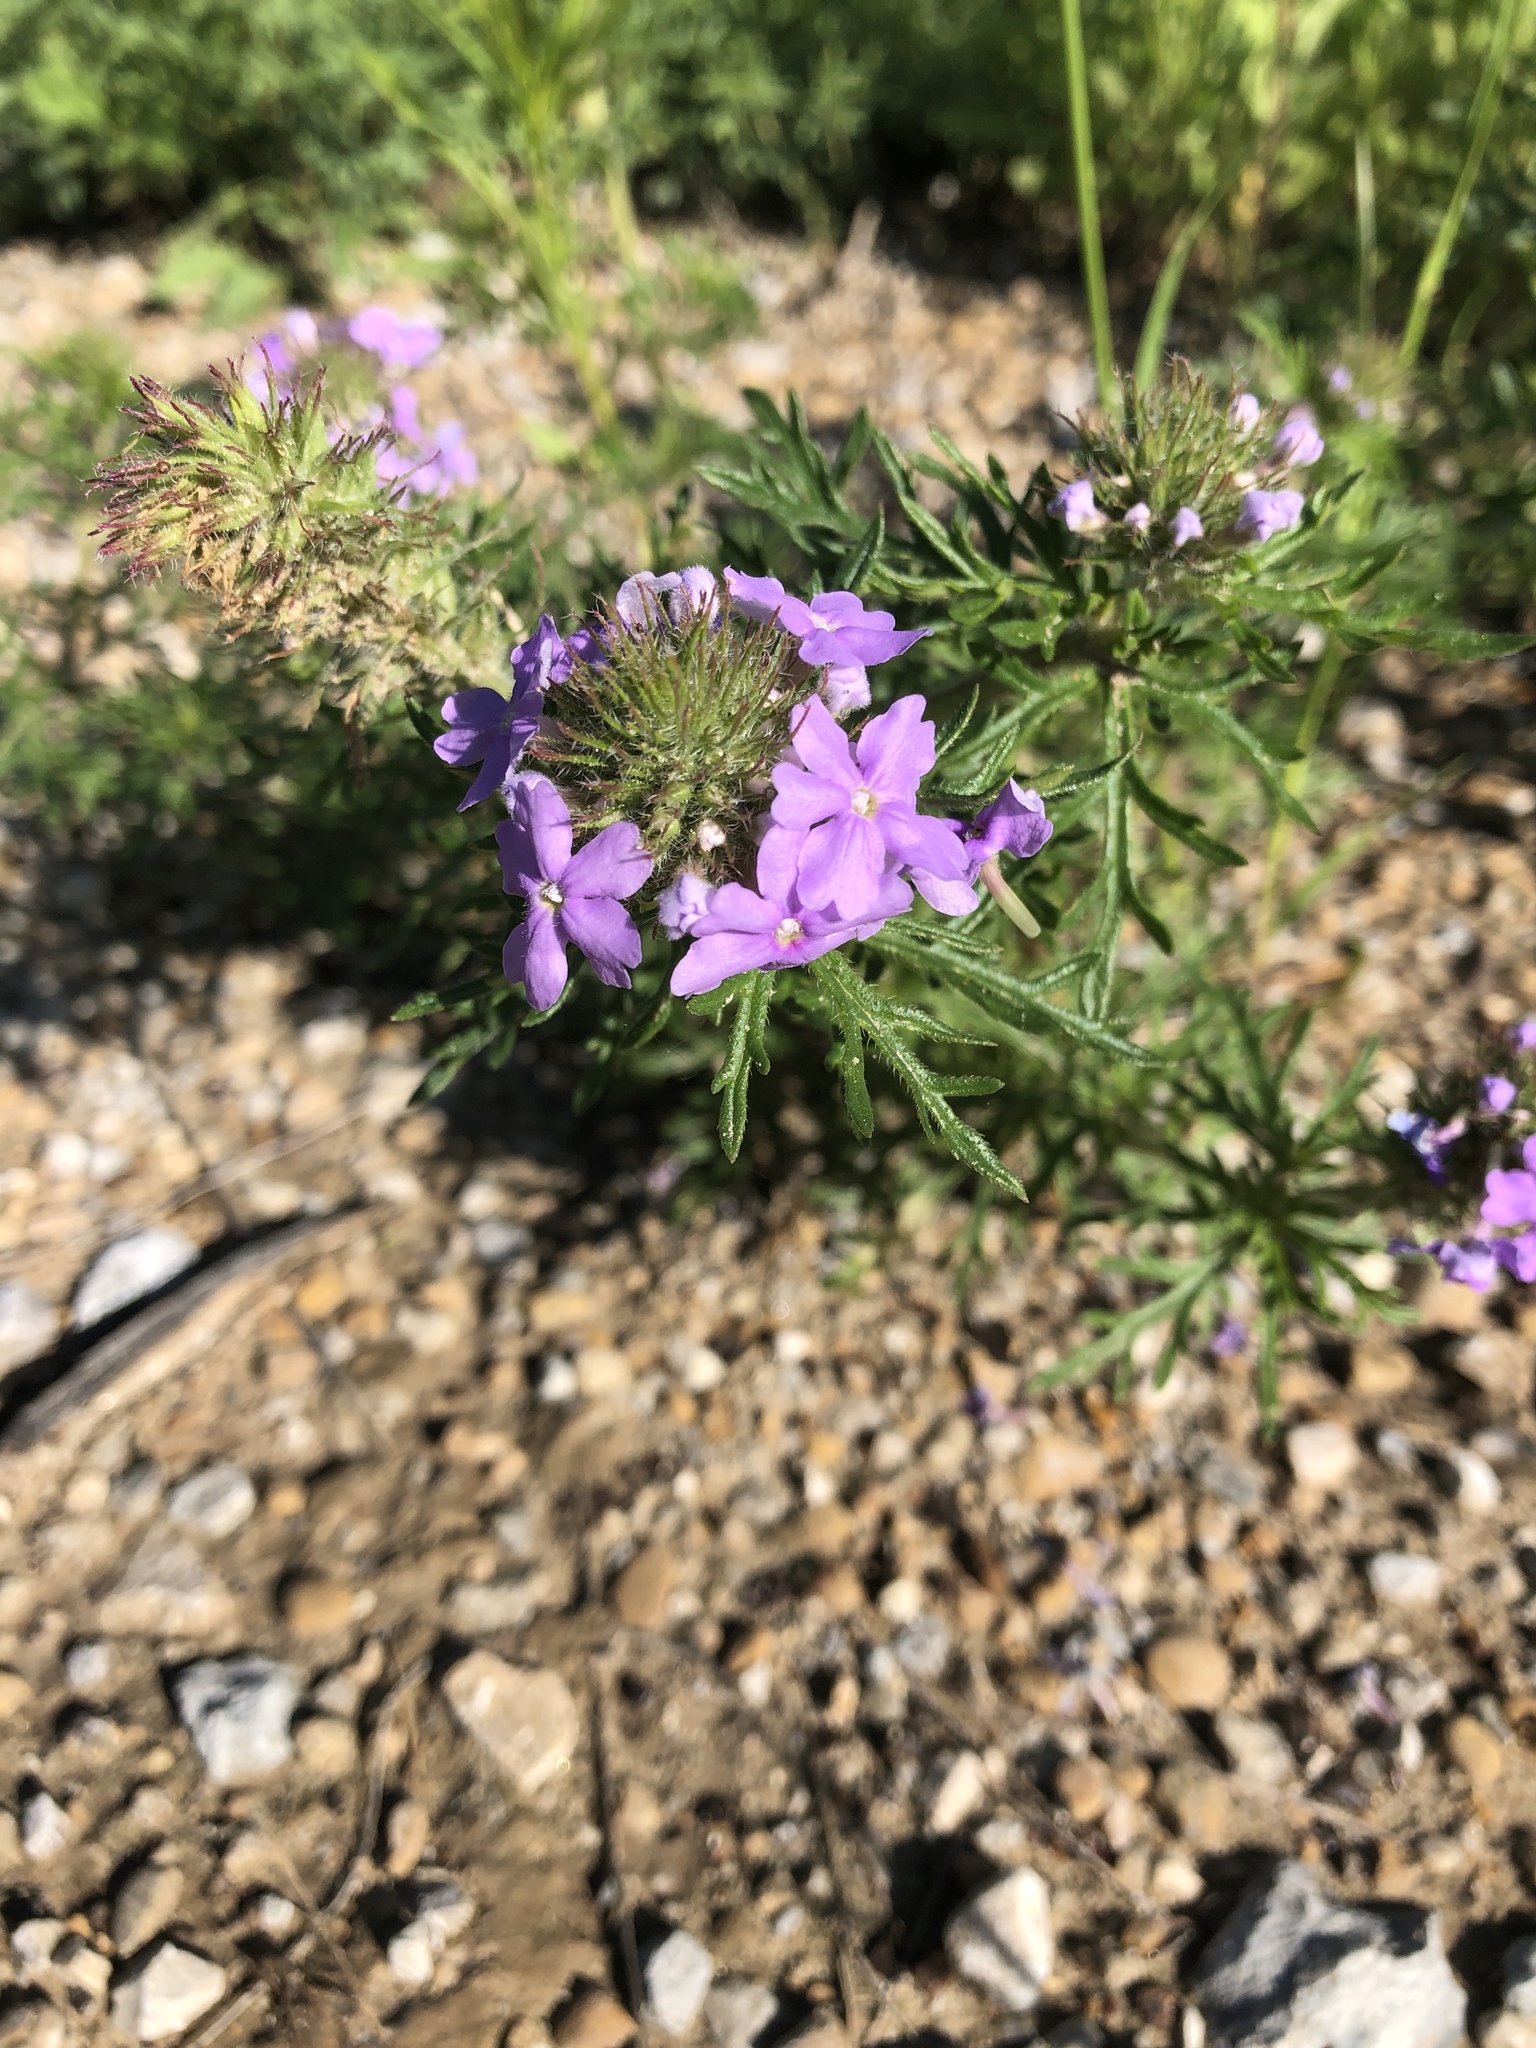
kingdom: Plantae
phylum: Tracheophyta
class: Magnoliopsida
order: Lamiales
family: Verbenaceae
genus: Verbena
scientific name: Verbena bipinnatifida
